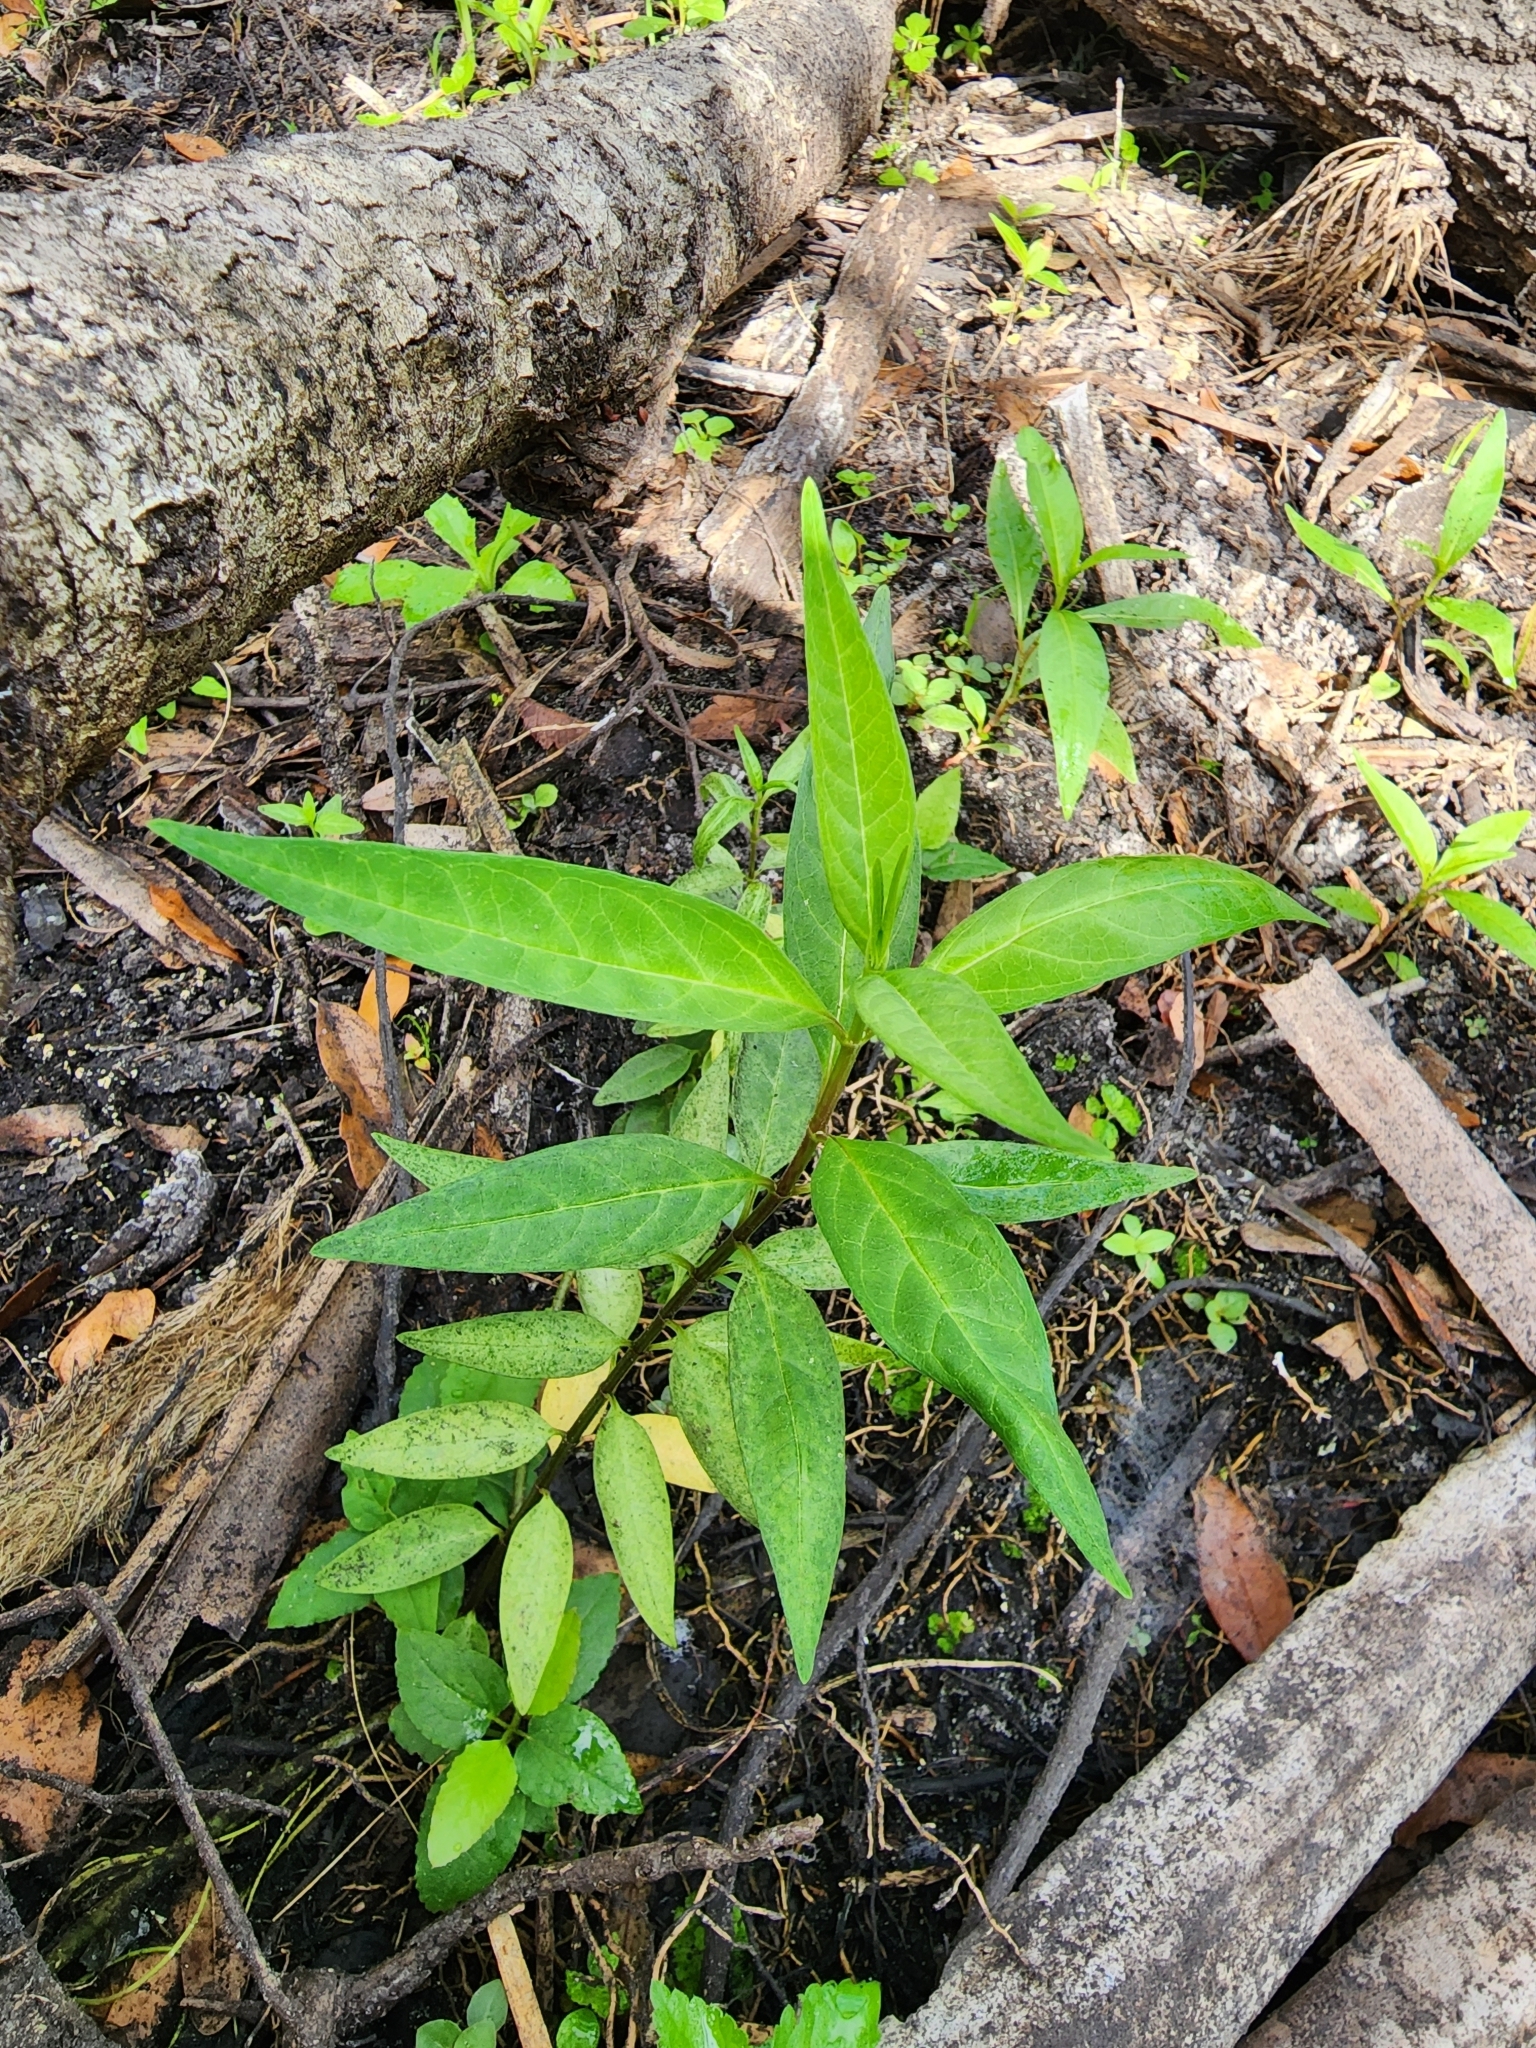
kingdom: Plantae
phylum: Tracheophyta
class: Magnoliopsida
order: Gentianales
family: Apocynaceae
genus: Asclepias
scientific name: Asclepias perennis
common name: Smooth-seed milkweed
